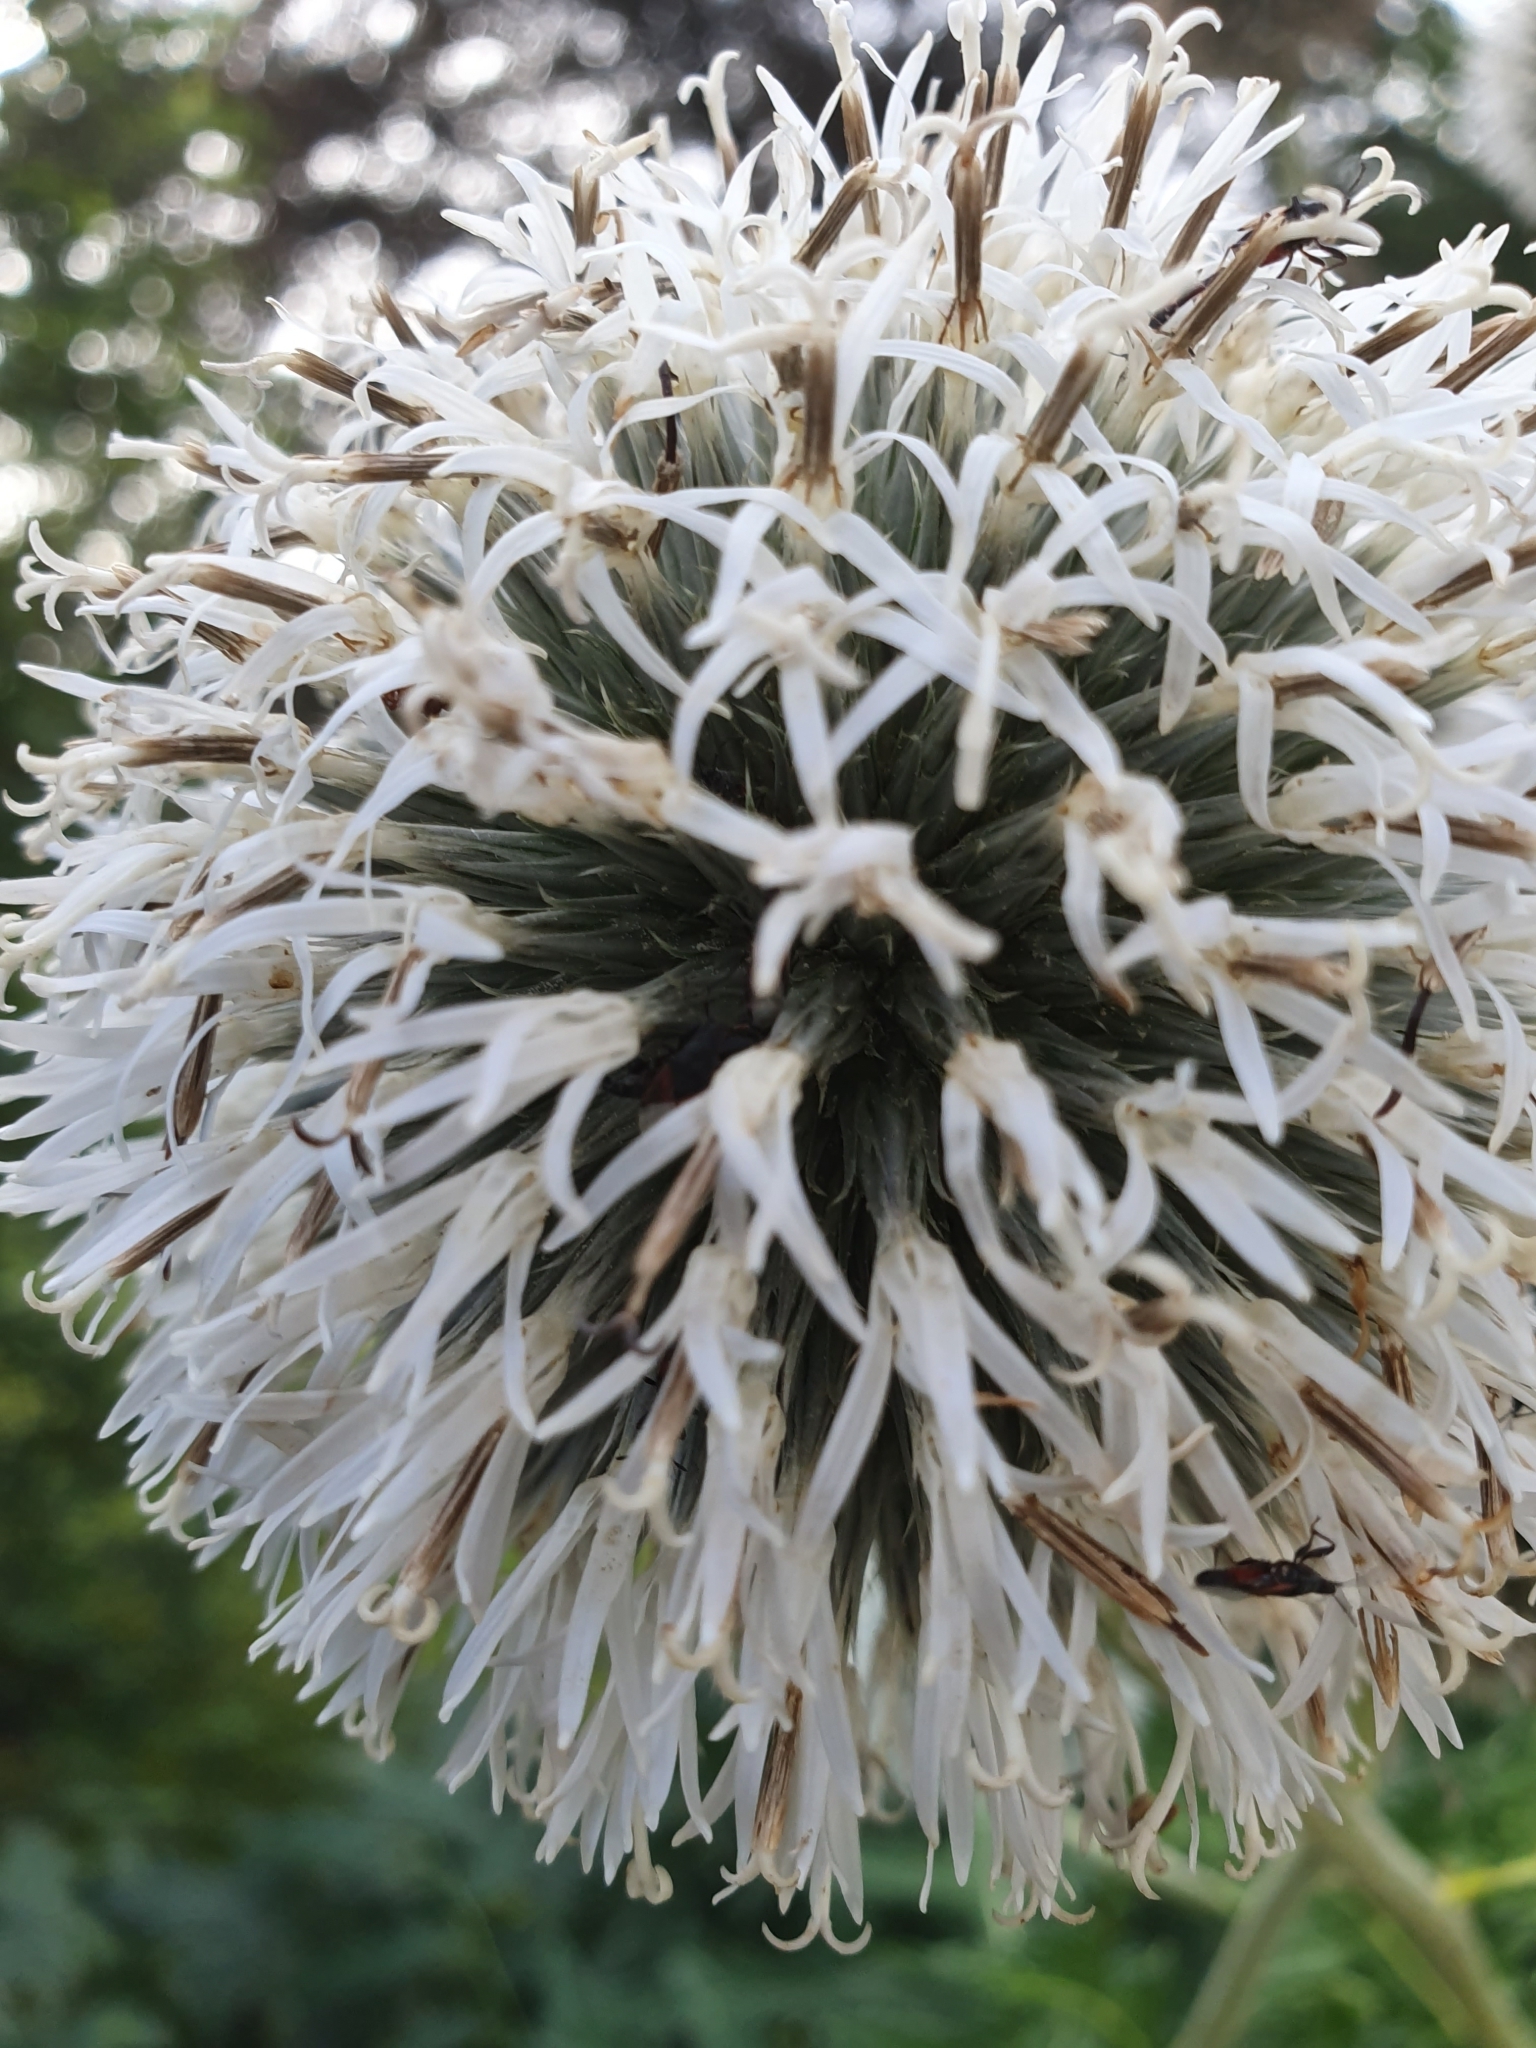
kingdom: Plantae
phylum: Tracheophyta
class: Magnoliopsida
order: Asterales
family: Asteraceae
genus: Echinops
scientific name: Echinops sphaerocephalus
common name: Glandular globe-thistle
